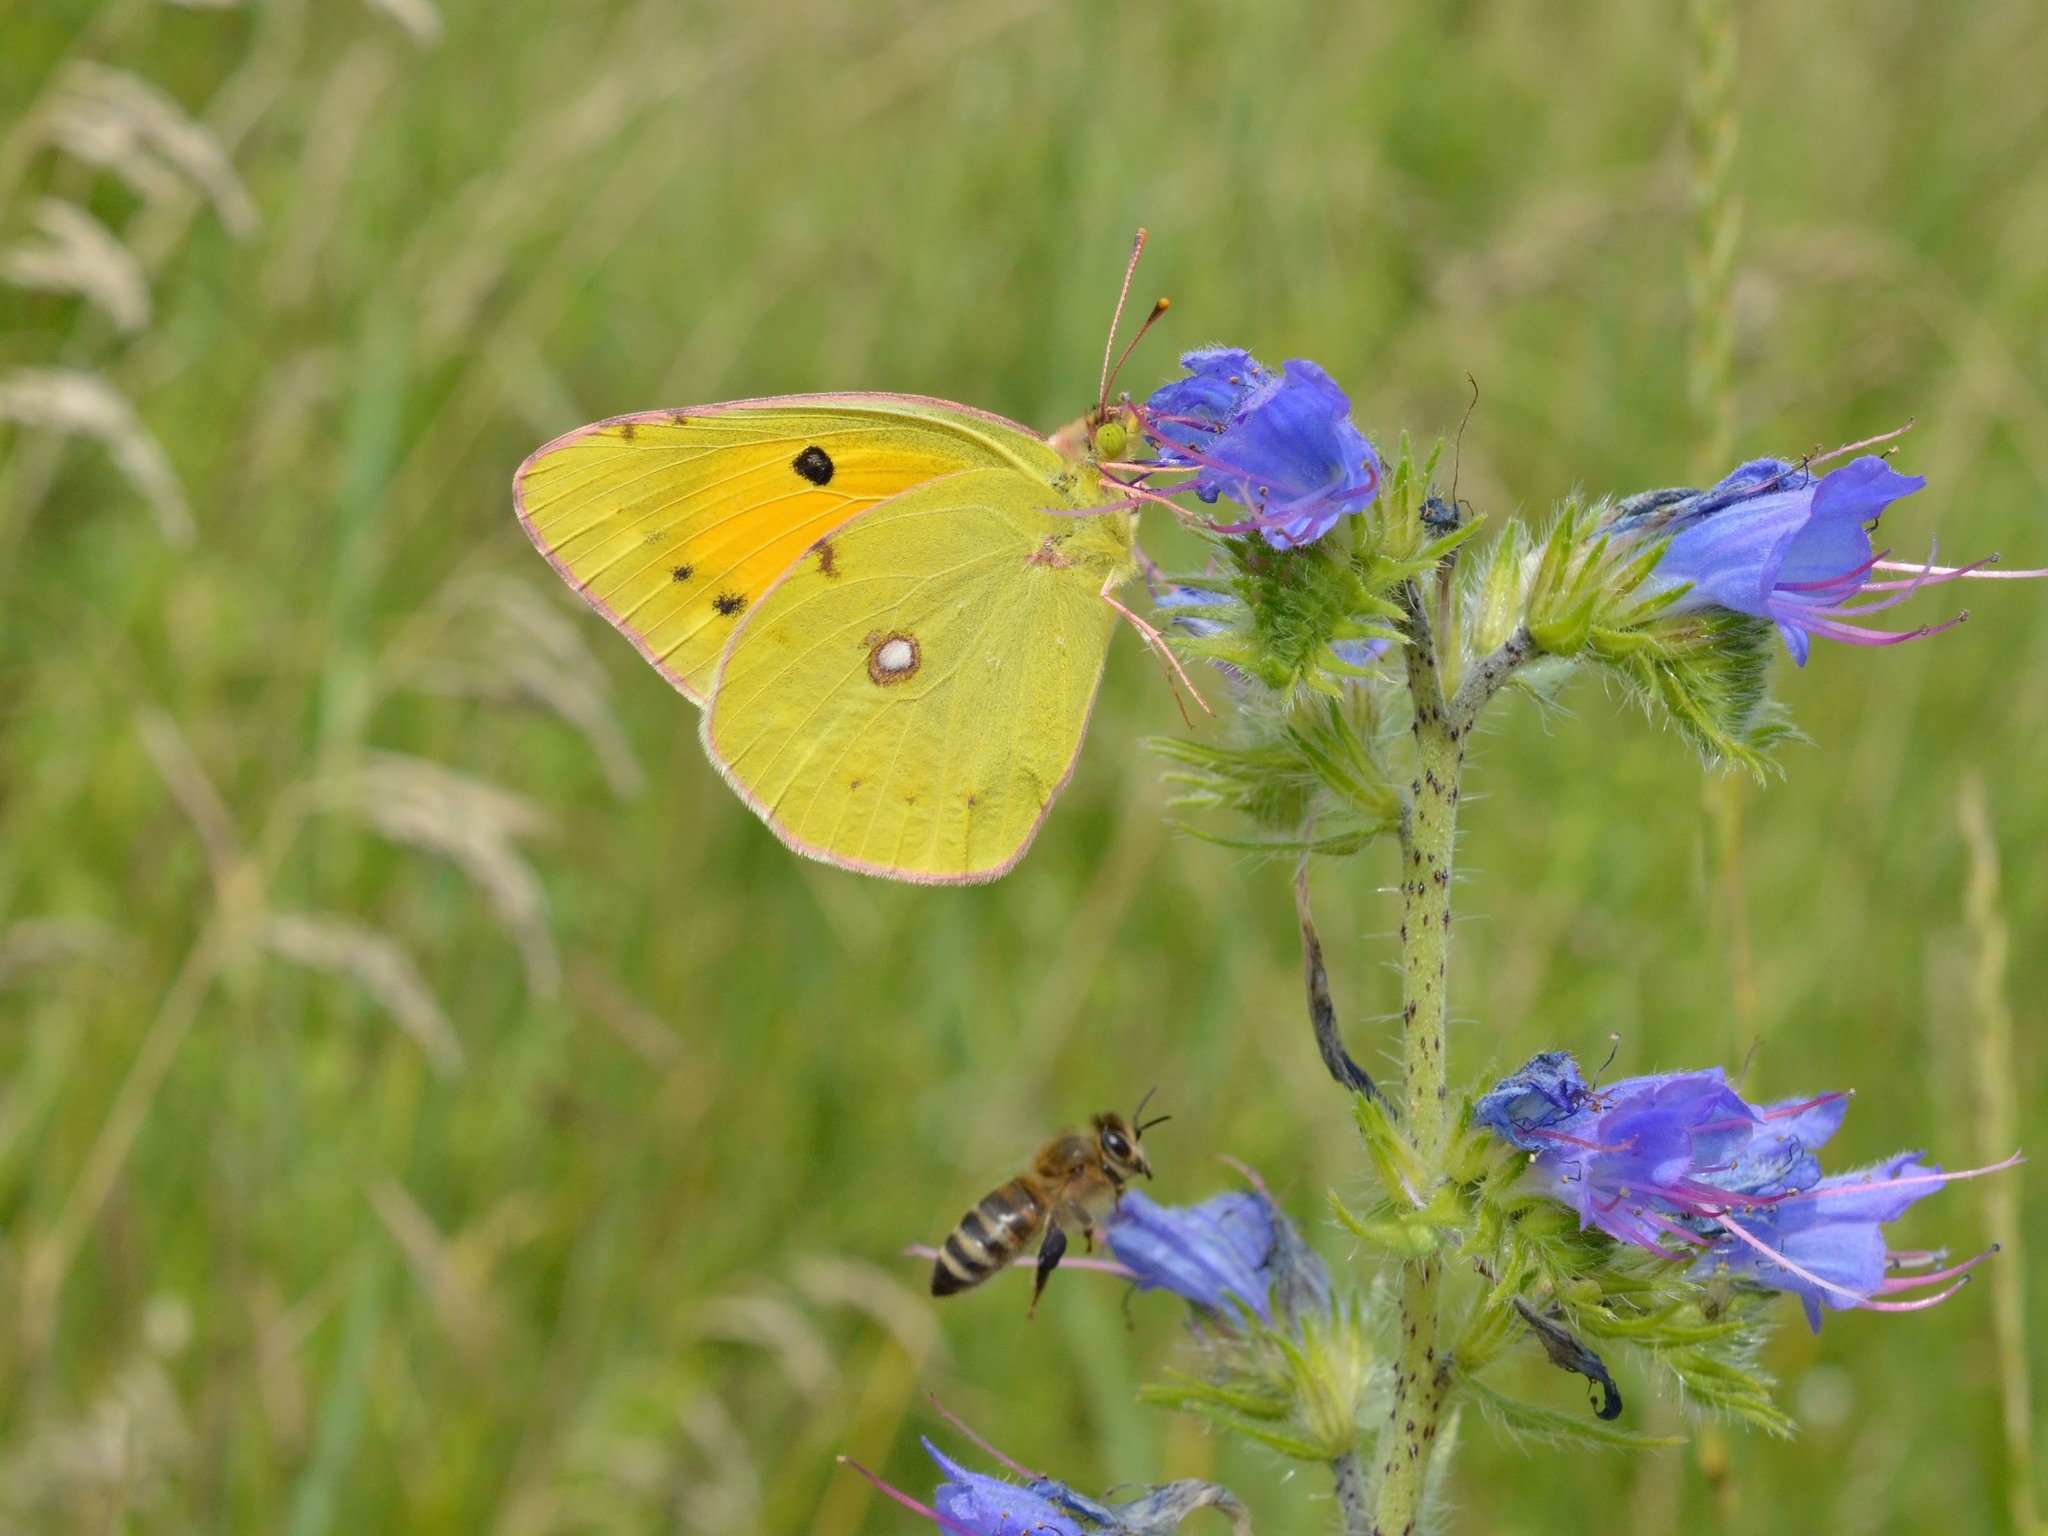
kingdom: Animalia
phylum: Arthropoda
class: Insecta
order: Lepidoptera
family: Pieridae
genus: Colias
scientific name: Colias croceus
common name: Clouded yellow
